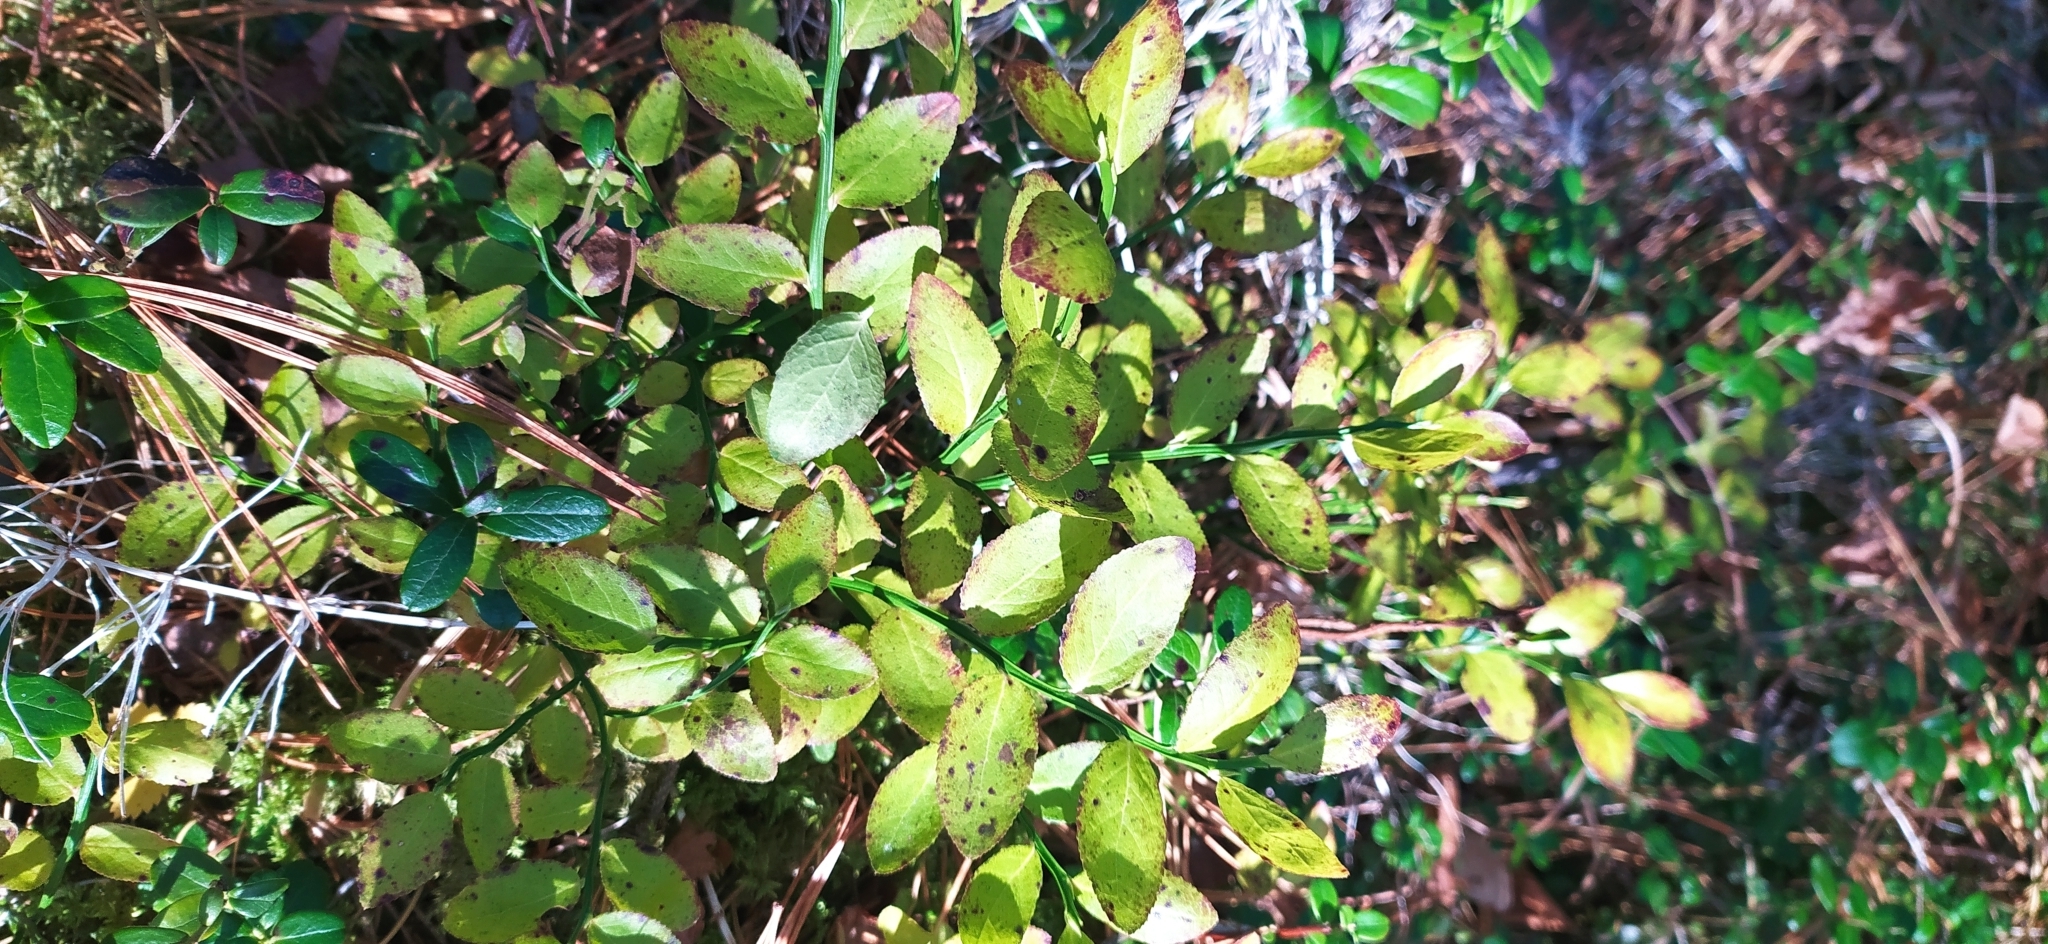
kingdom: Plantae
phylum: Tracheophyta
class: Magnoliopsida
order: Ericales
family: Ericaceae
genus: Vaccinium
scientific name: Vaccinium myrtillus
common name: Bilberry
